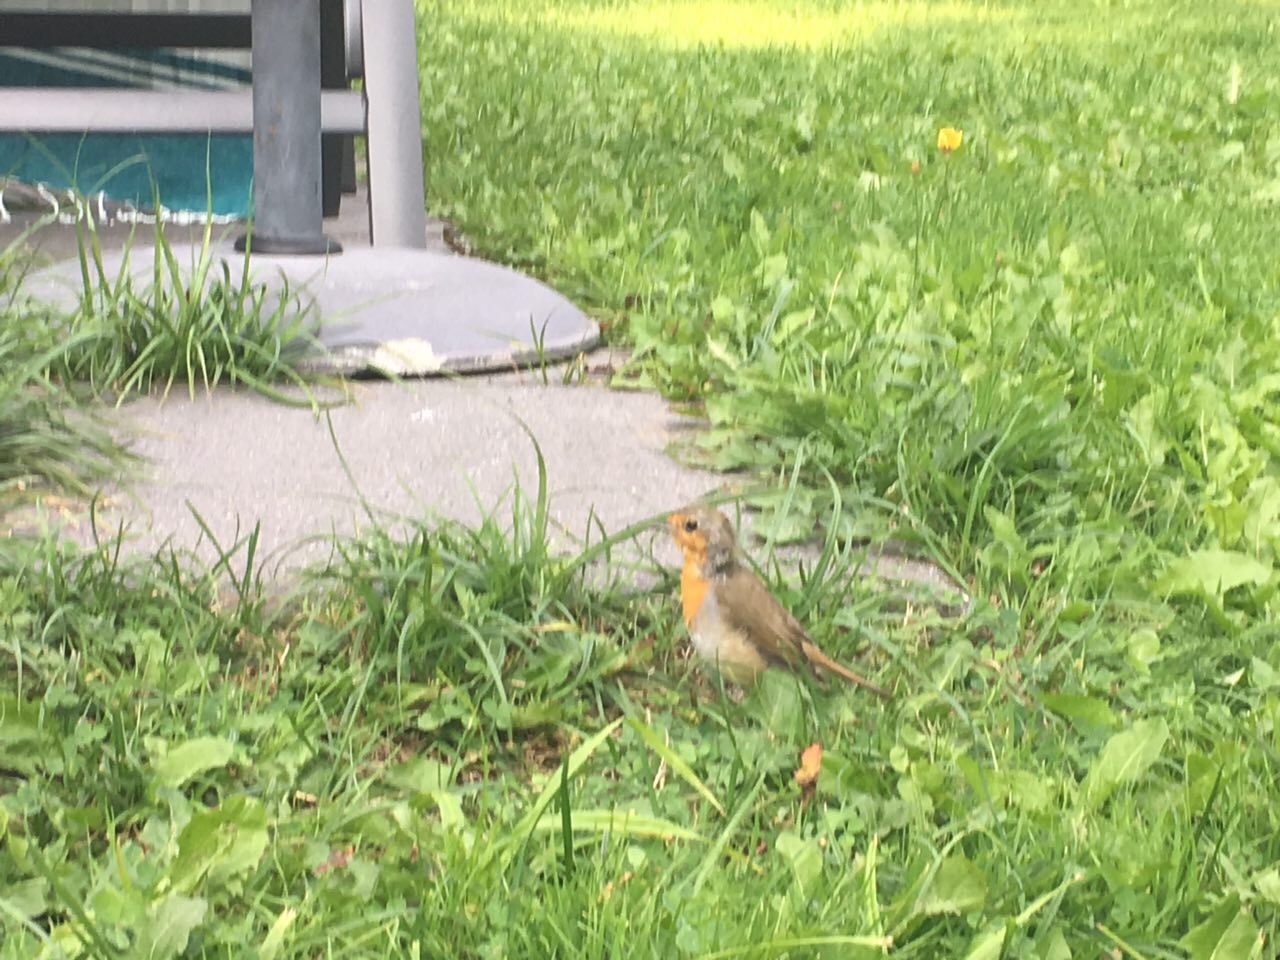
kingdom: Animalia
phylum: Chordata
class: Aves
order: Passeriformes
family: Muscicapidae
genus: Erithacus
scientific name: Erithacus rubecula
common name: European robin
